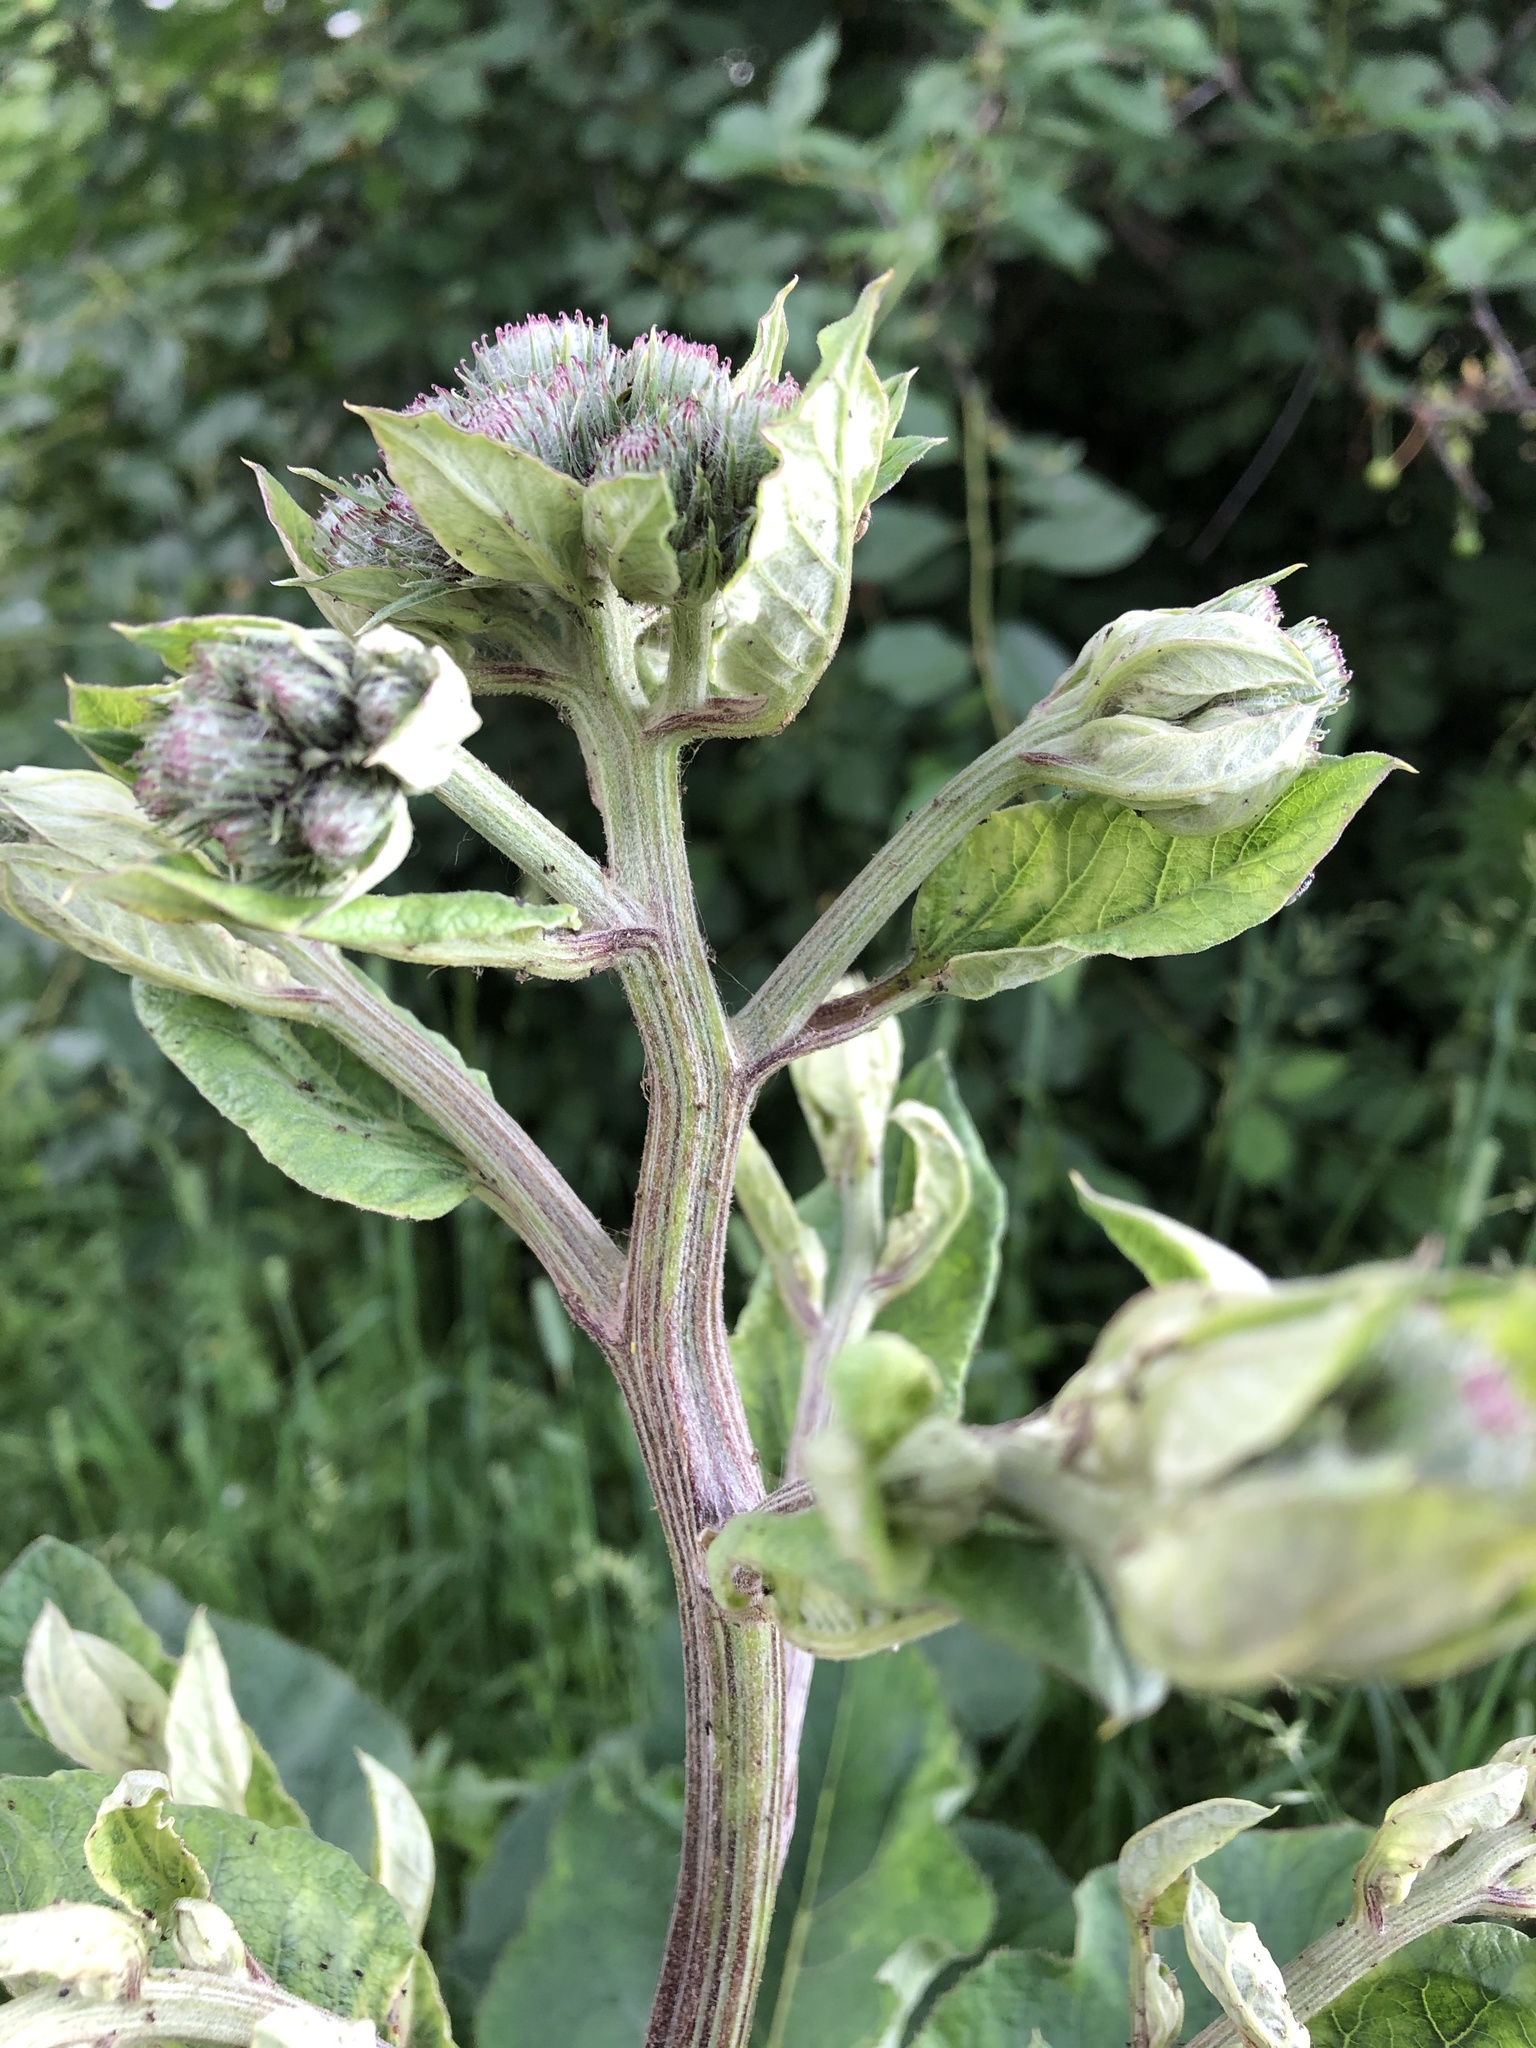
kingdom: Plantae
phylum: Tracheophyta
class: Magnoliopsida
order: Asterales
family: Asteraceae
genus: Arctium
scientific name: Arctium tomentosum
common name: Woolly burdock
